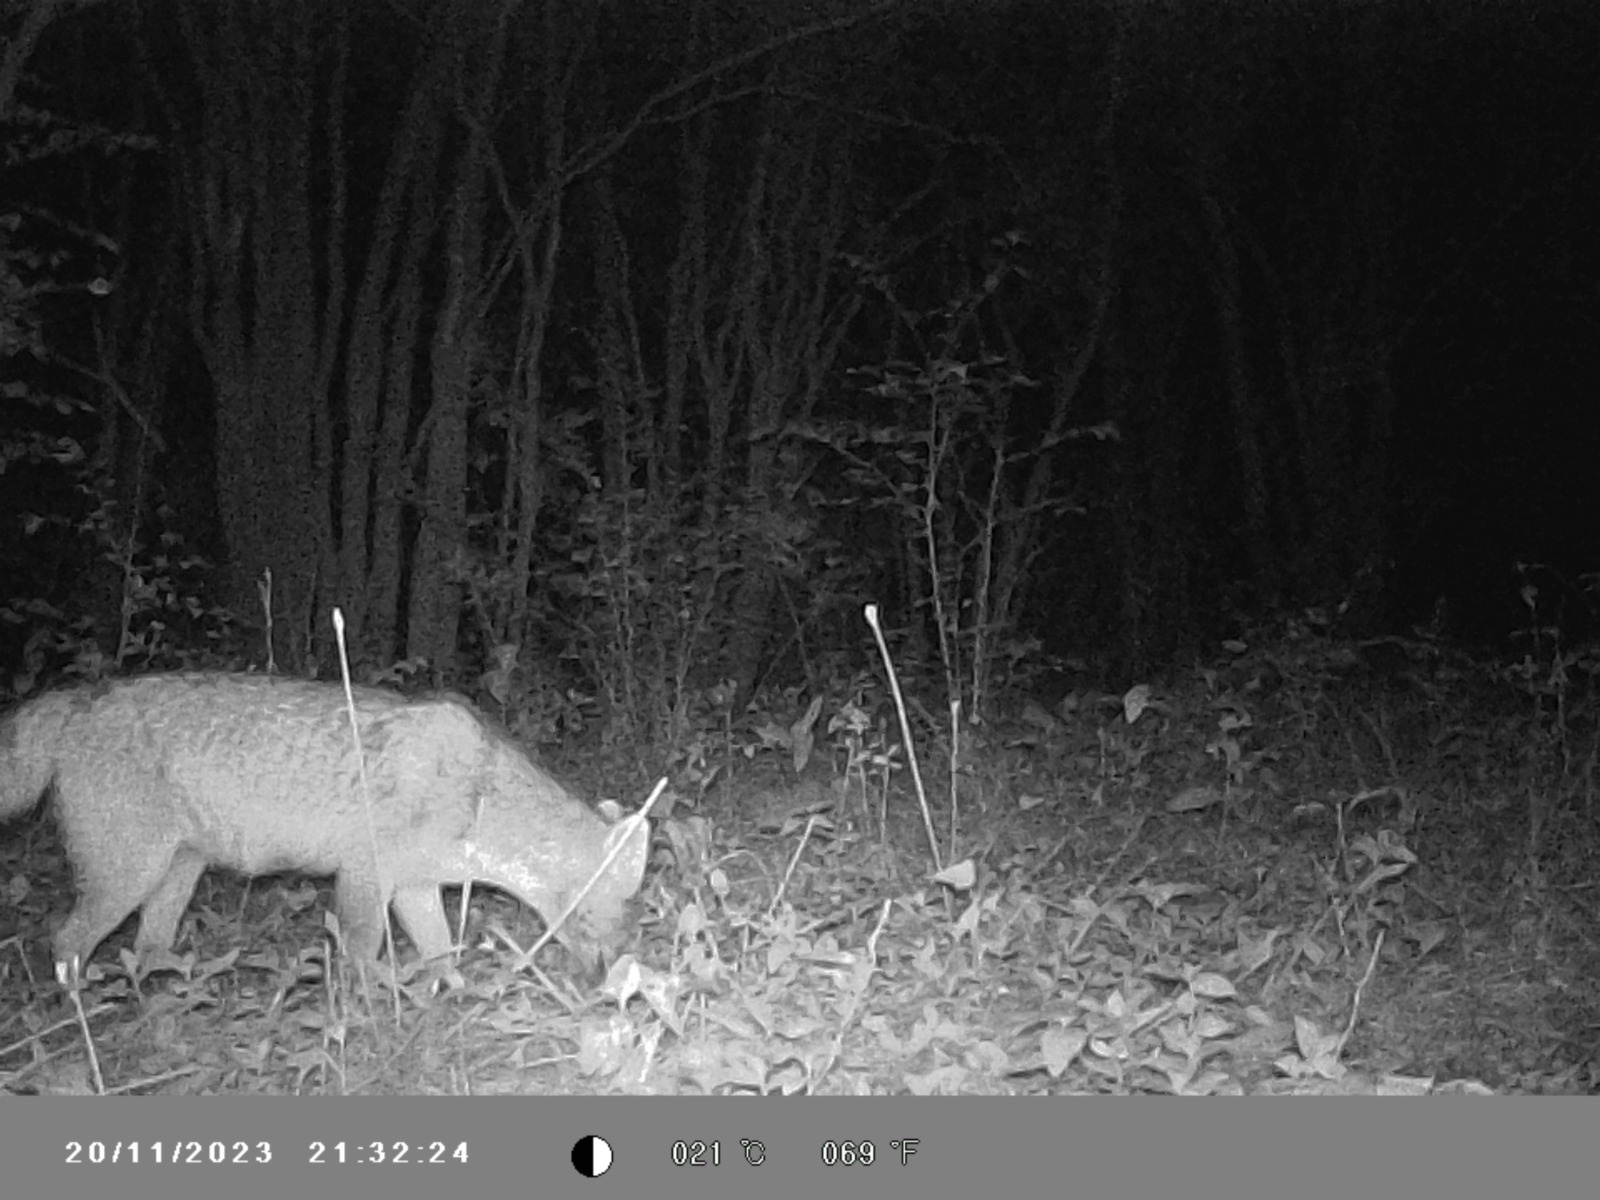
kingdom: Animalia
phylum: Chordata
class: Mammalia
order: Carnivora
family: Canidae
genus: Lycalopex
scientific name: Lycalopex gymnocercus
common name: Pampas fox
